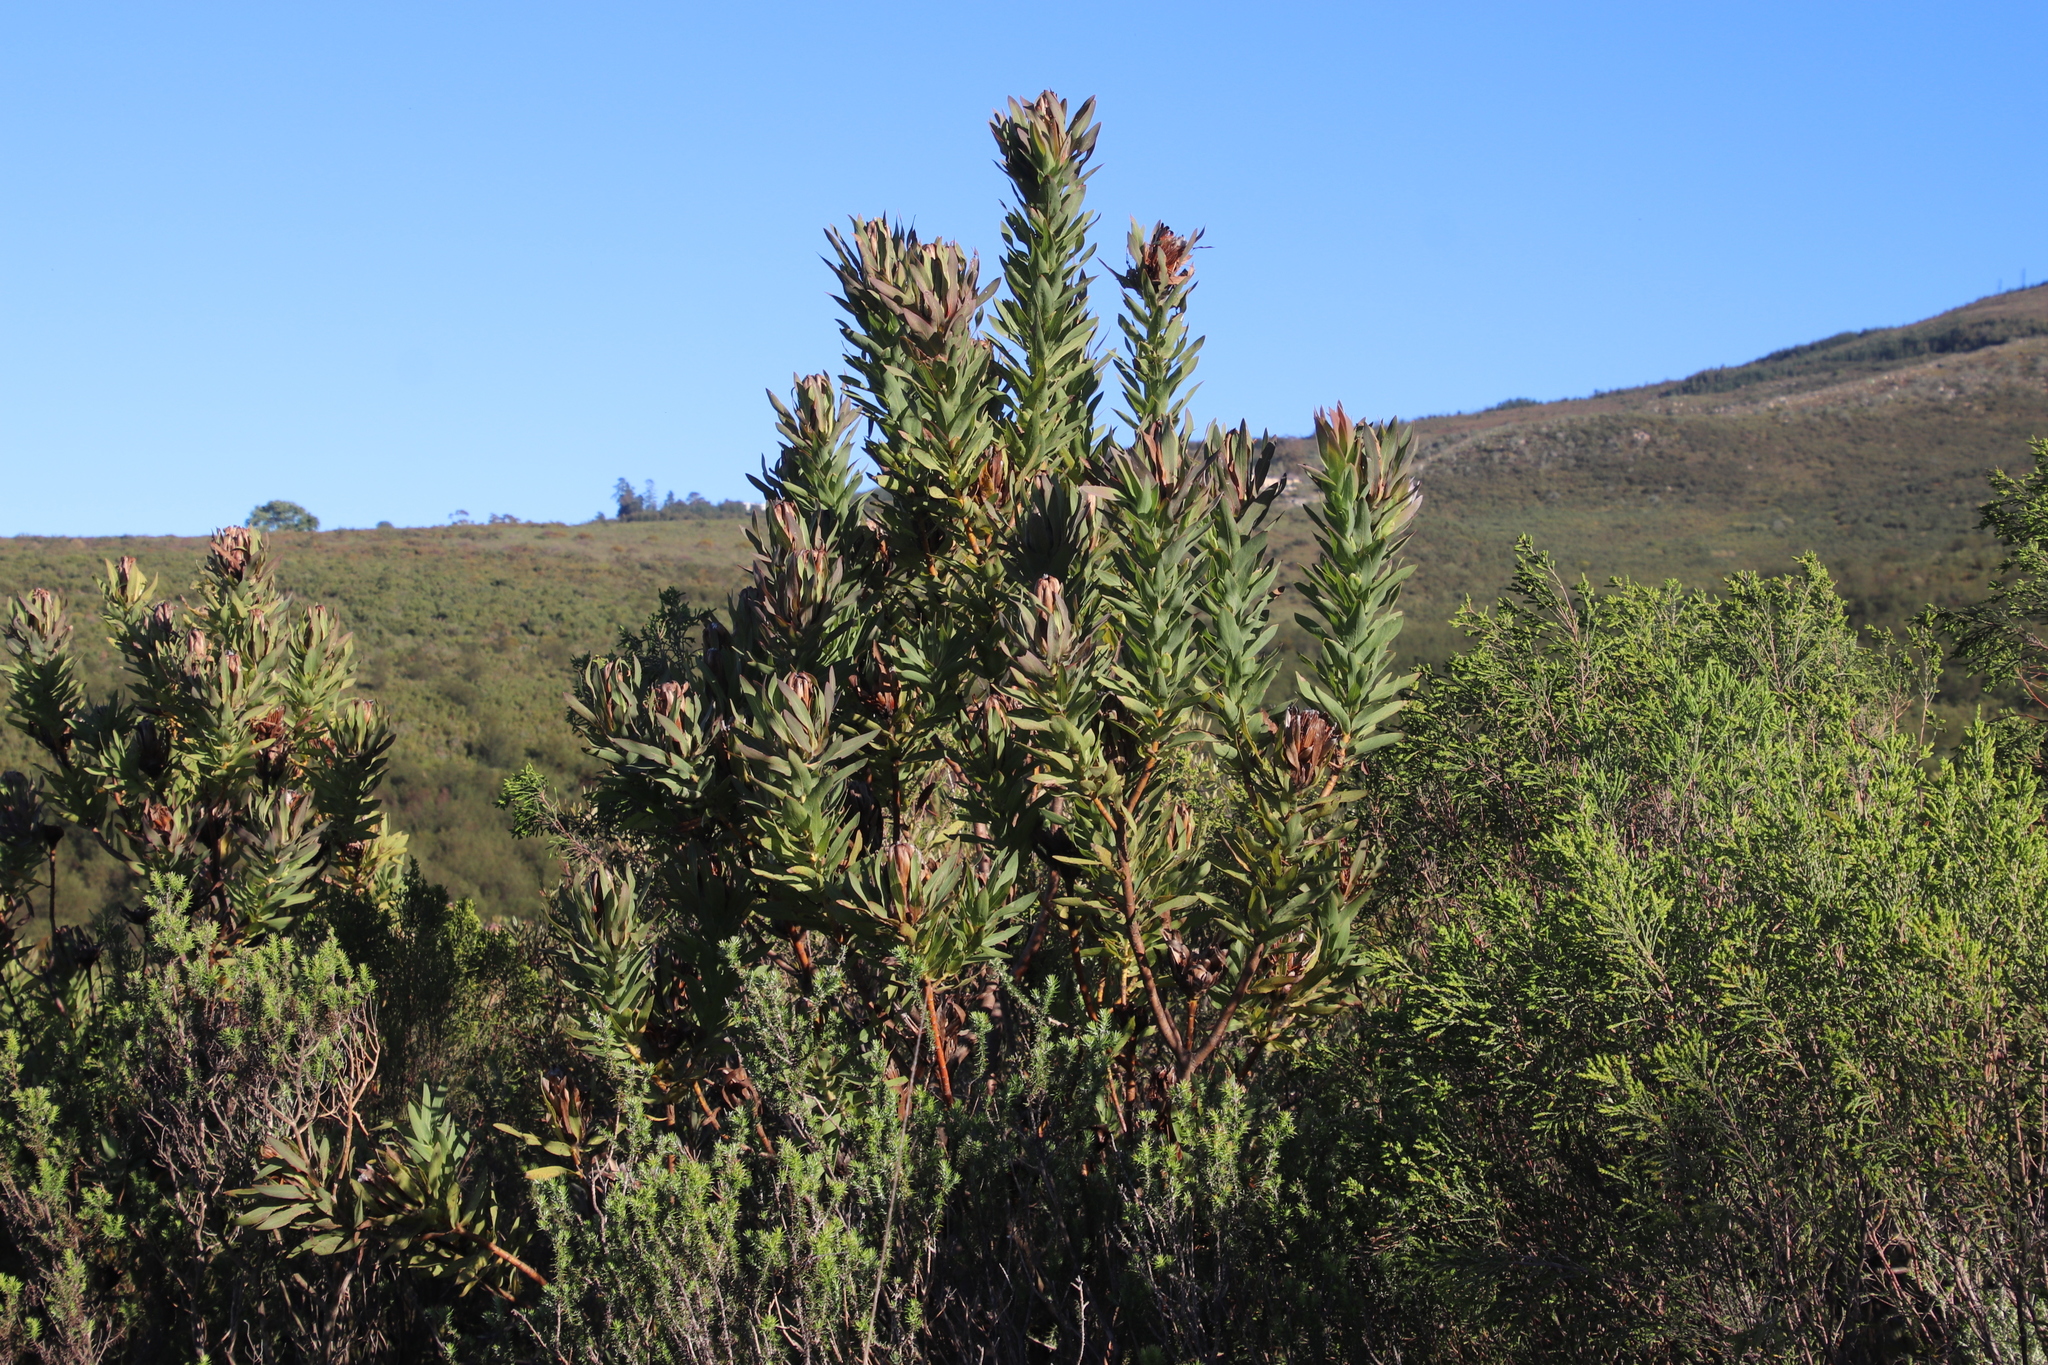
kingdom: Plantae
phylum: Tracheophyta
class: Magnoliopsida
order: Proteales
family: Proteaceae
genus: Protea
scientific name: Protea coronata
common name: Green sugarbush
